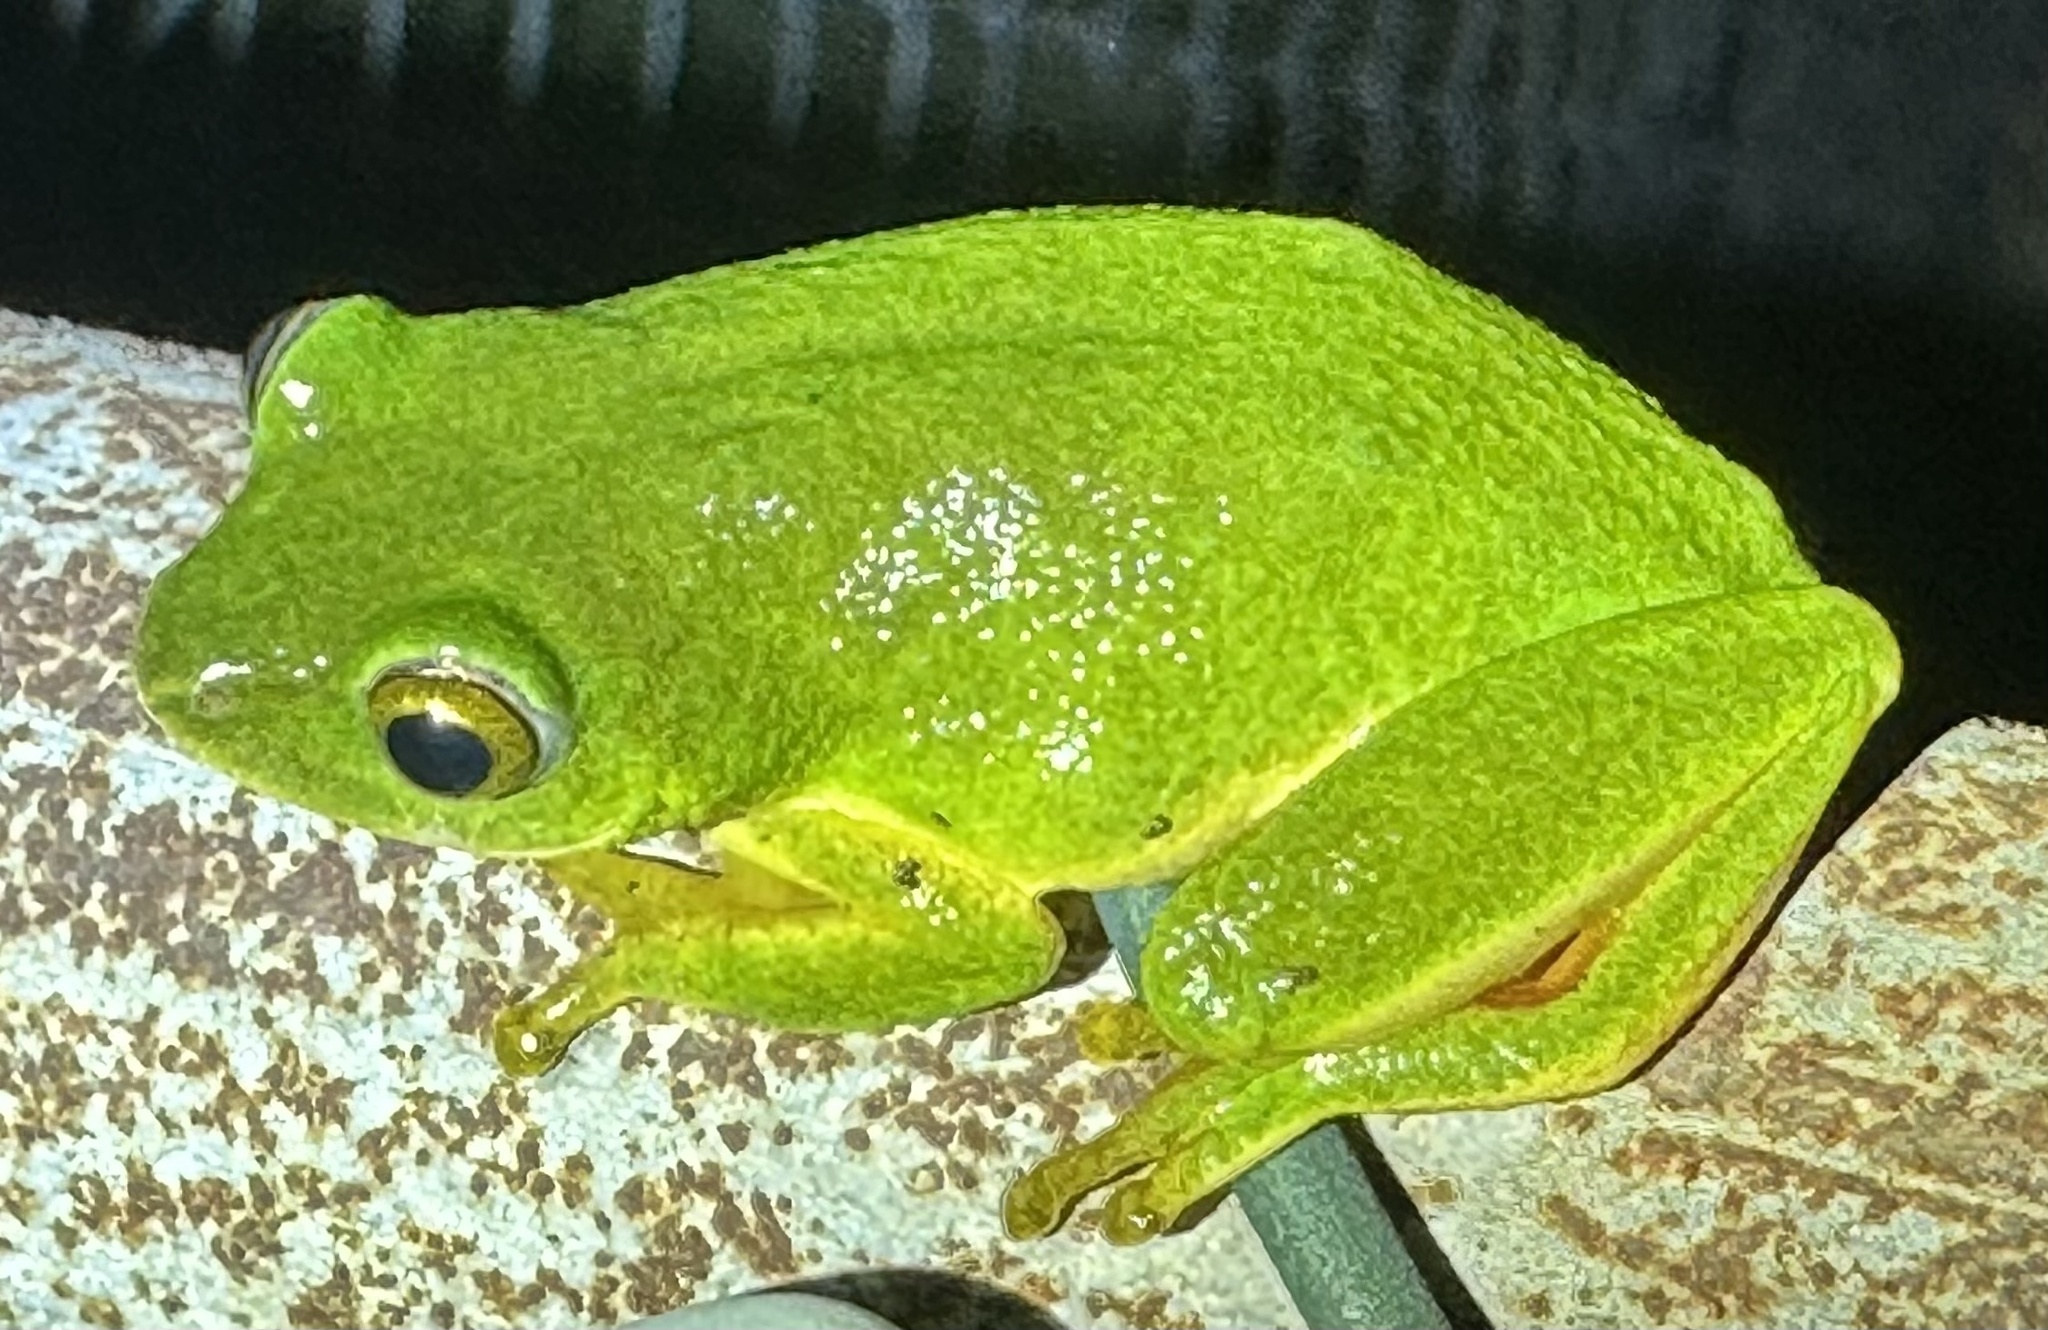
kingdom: Animalia
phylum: Chordata
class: Amphibia
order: Anura
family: Hyperoliidae
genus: Hyperolius
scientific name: Hyperolius tuberilinguis
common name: Tinker reed frog
